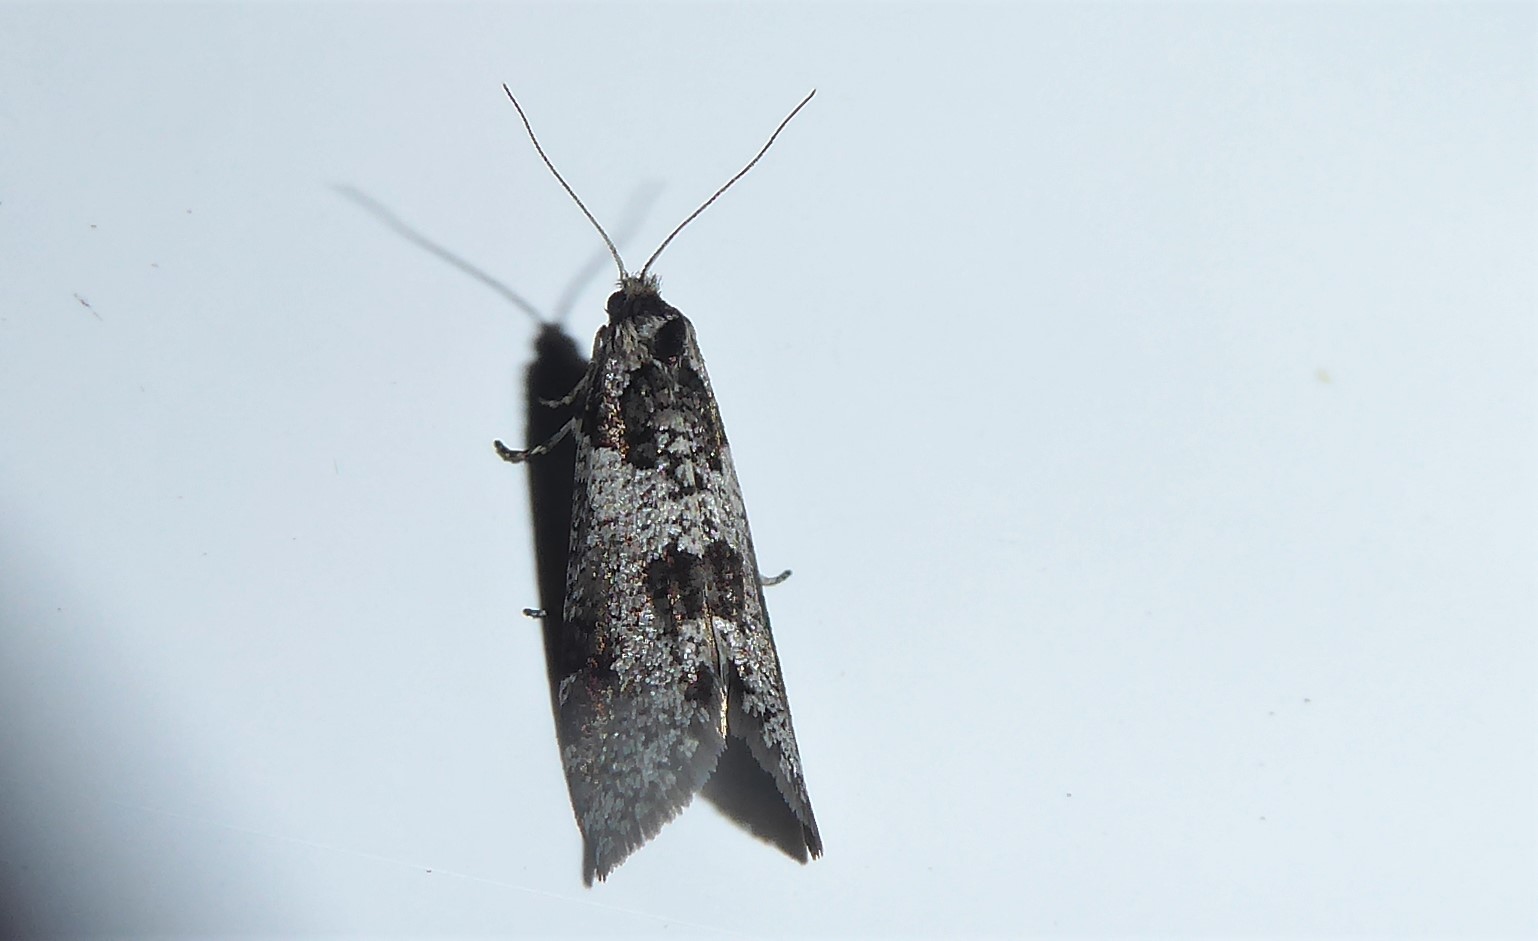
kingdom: Animalia
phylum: Arthropoda
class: Insecta
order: Lepidoptera
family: Psychidae
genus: Lepidoscia
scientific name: Lepidoscia heliochares
